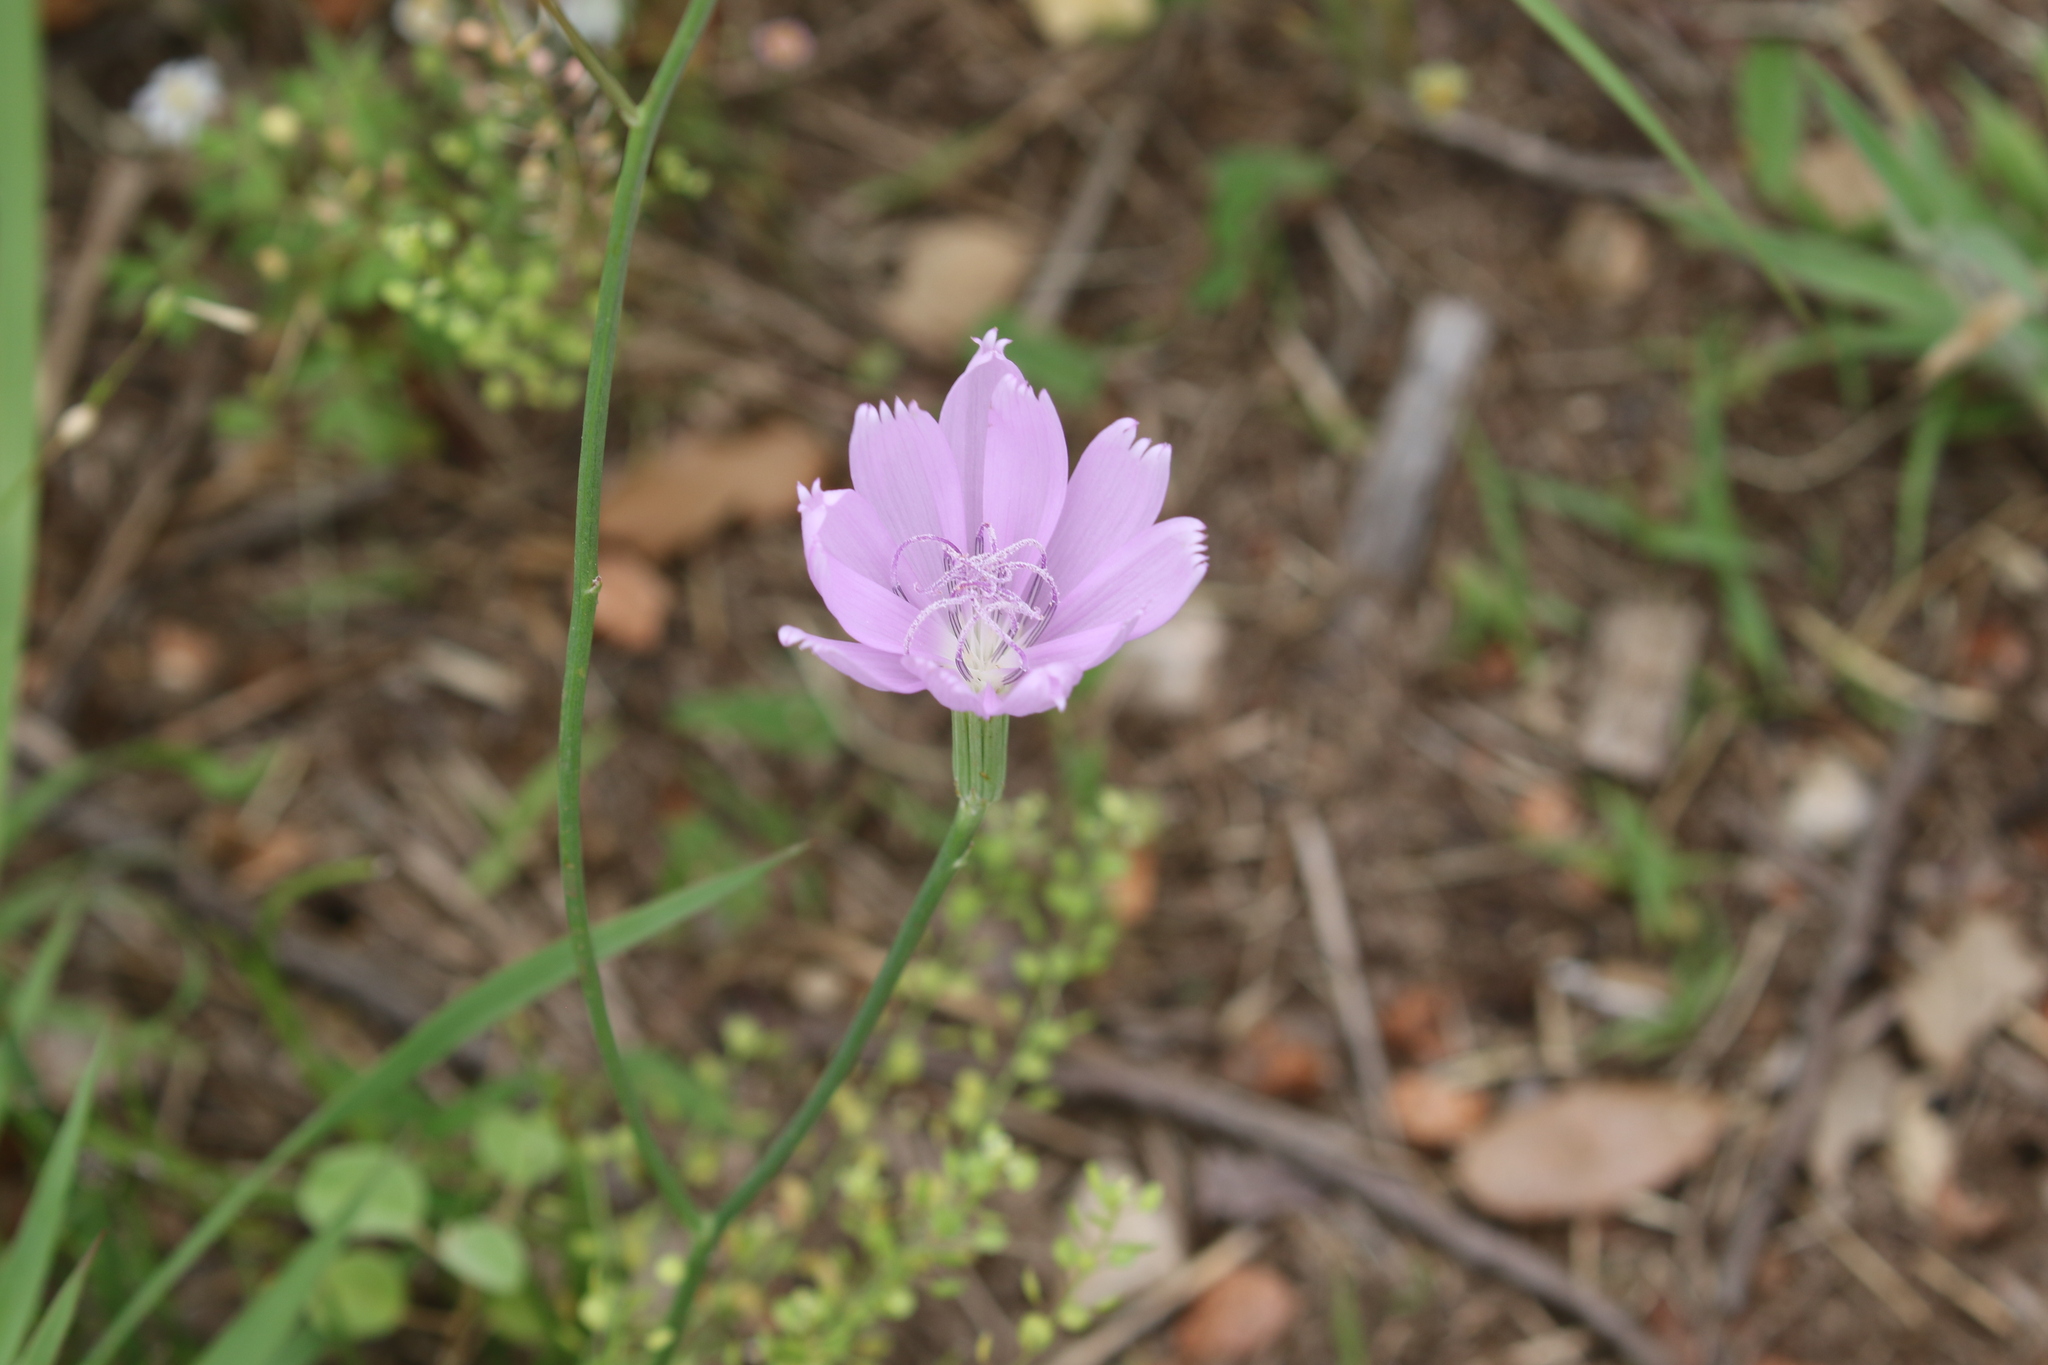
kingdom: Plantae
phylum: Tracheophyta
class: Magnoliopsida
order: Asterales
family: Asteraceae
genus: Lygodesmia
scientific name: Lygodesmia texana
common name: Texas skeleton-plant
